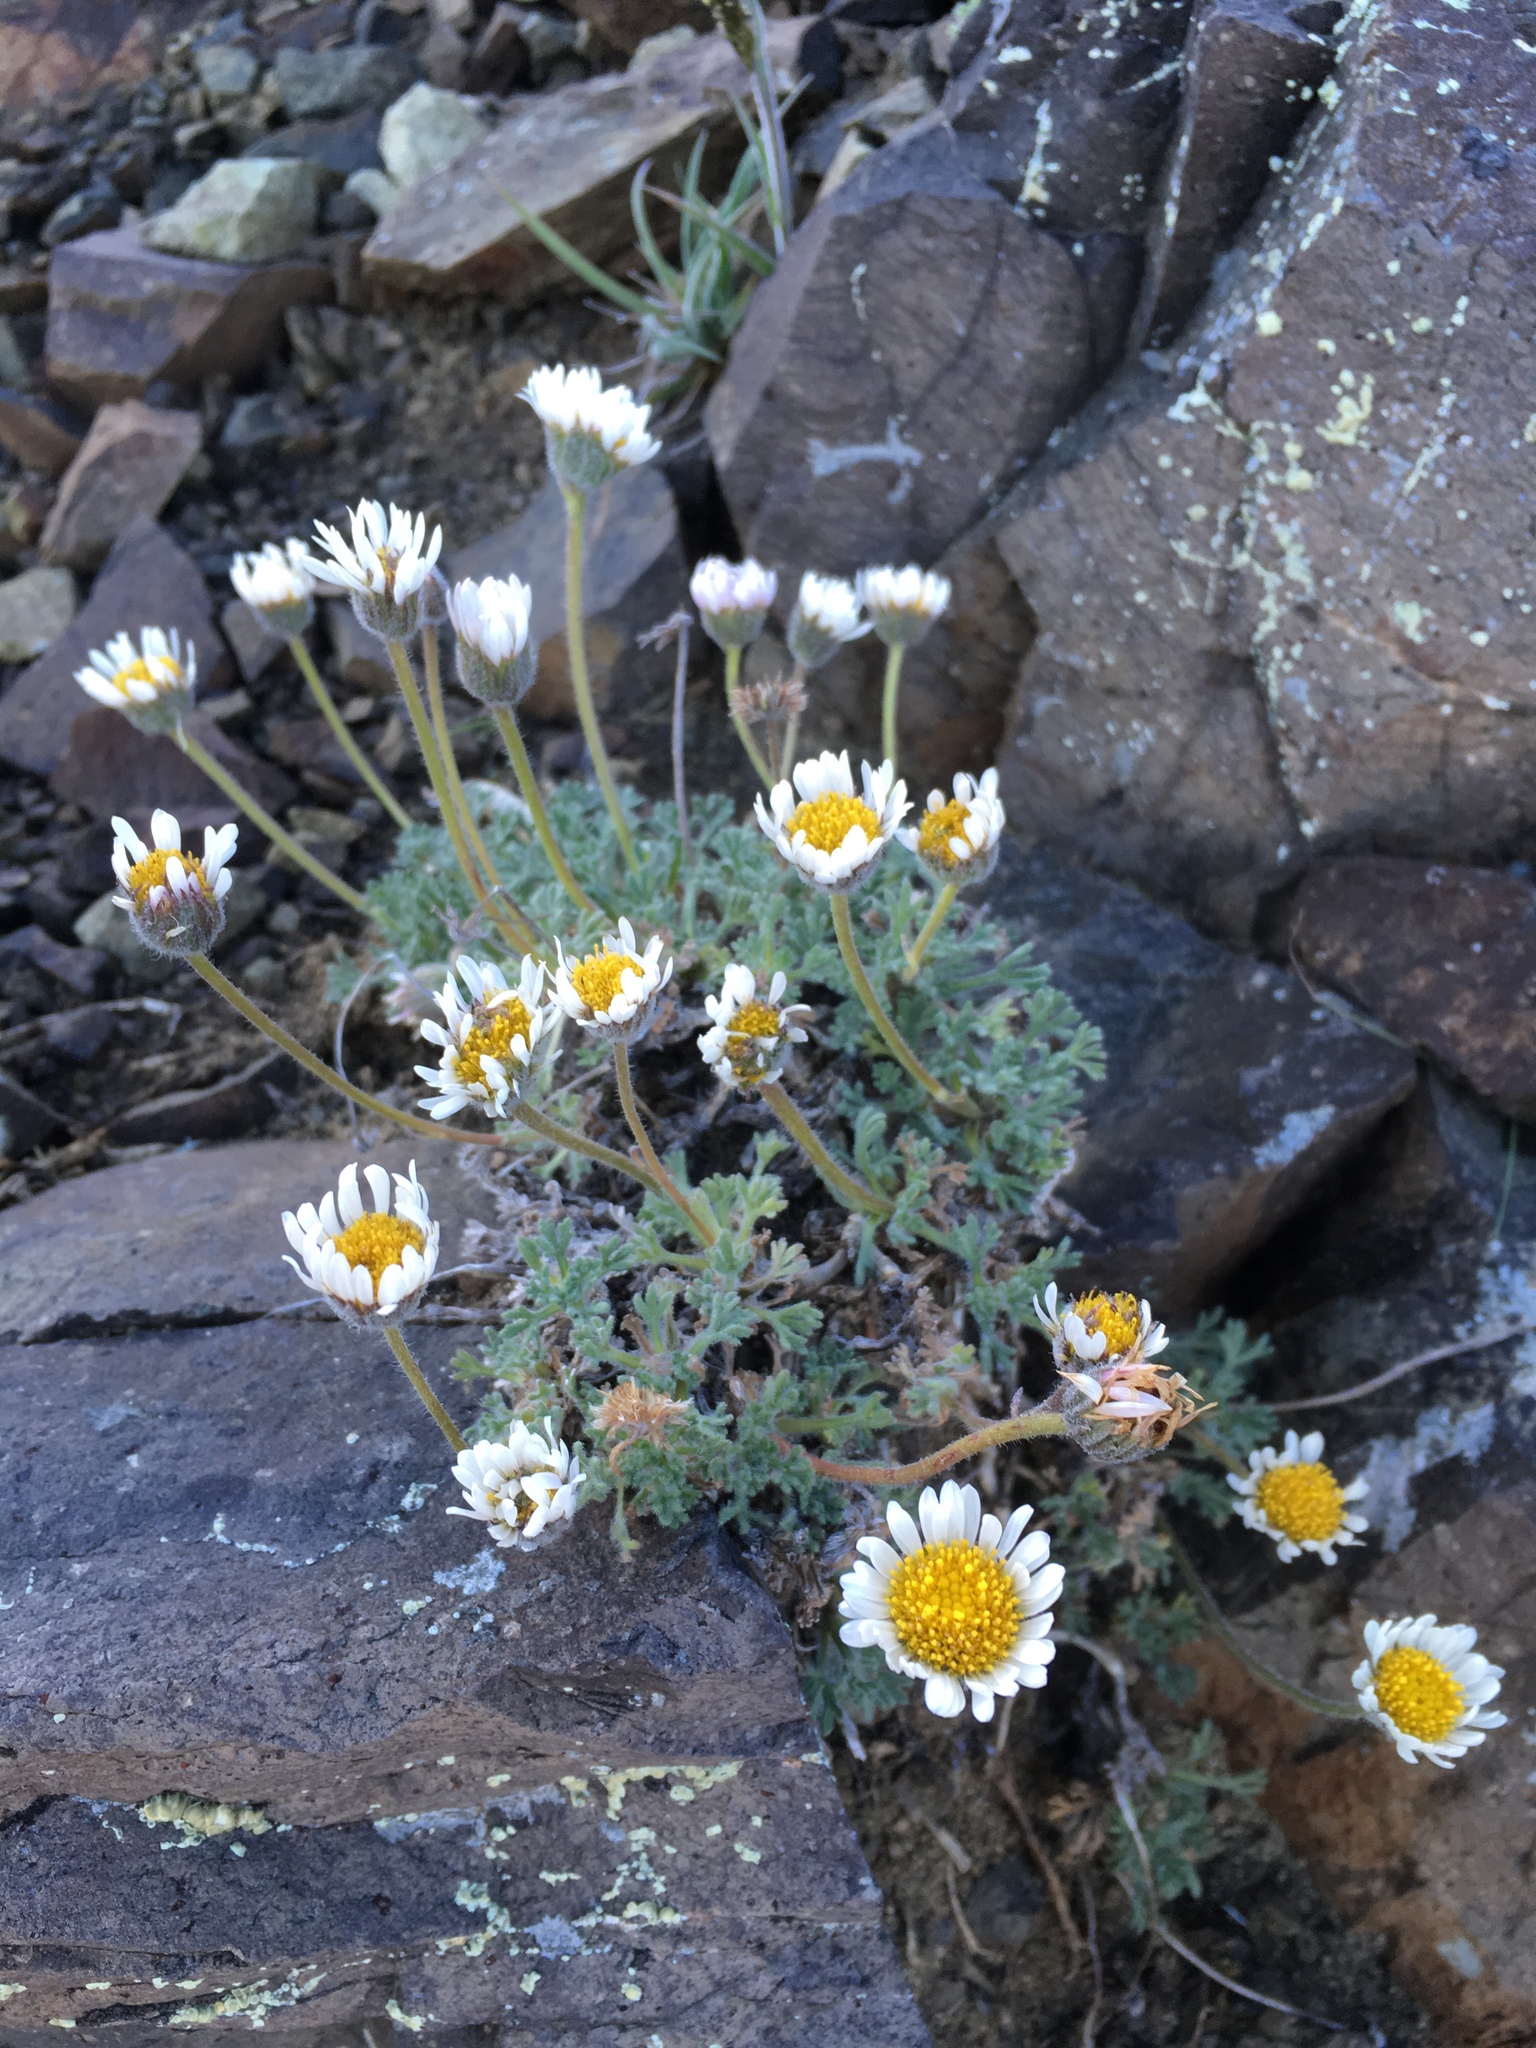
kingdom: Plantae
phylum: Tracheophyta
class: Magnoliopsida
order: Asterales
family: Asteraceae
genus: Erigeron
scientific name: Erigeron compositus
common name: Dwarf mountain fleabane
